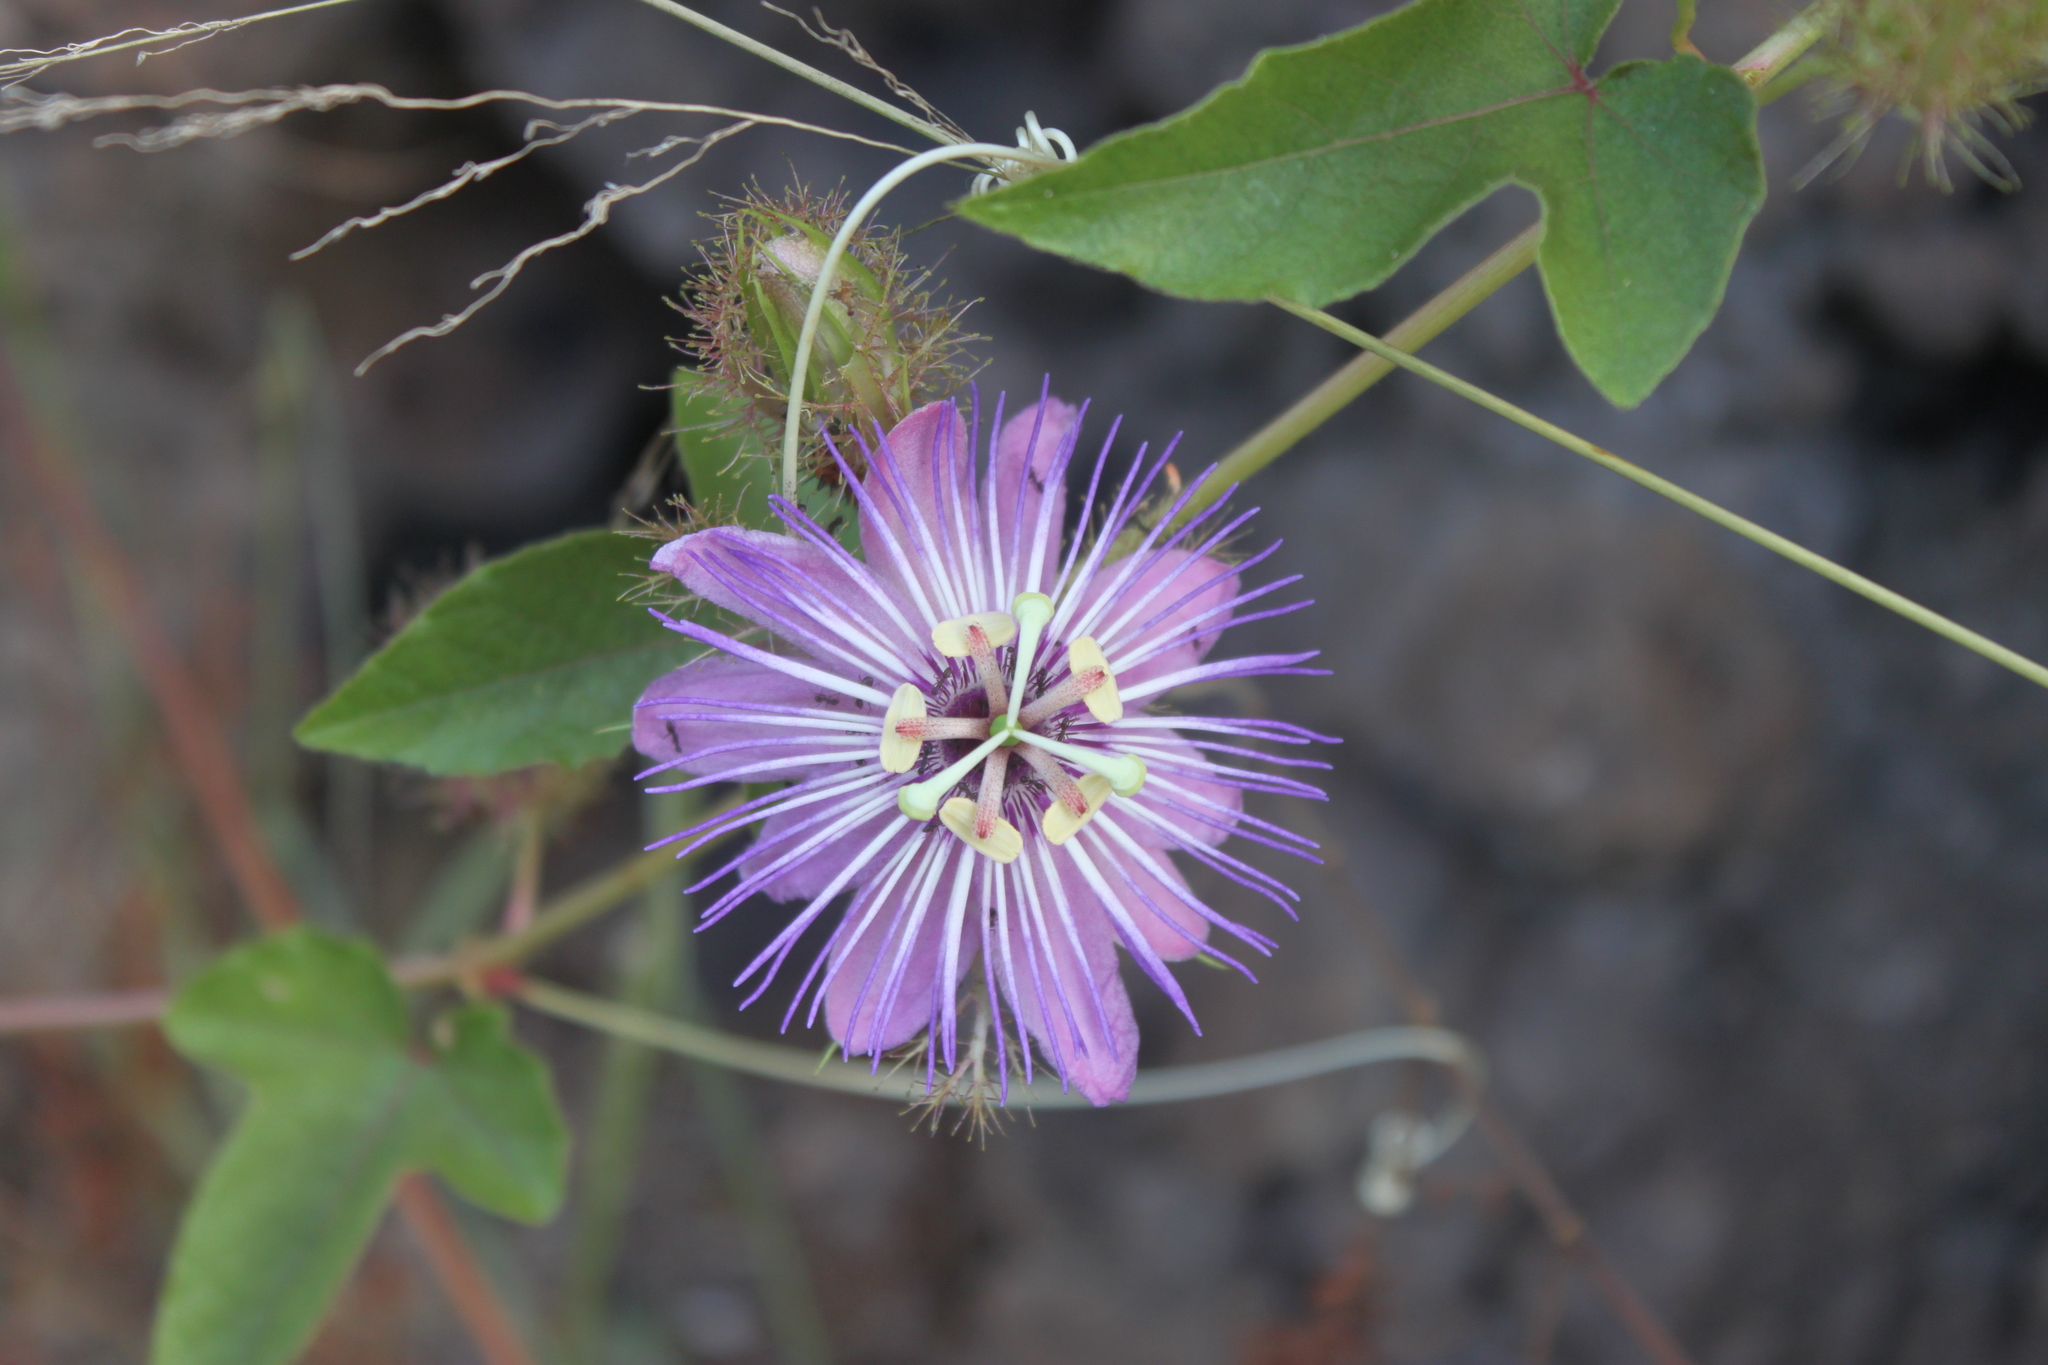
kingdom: Plantae
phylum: Tracheophyta
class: Magnoliopsida
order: Malpighiales
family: Passifloraceae
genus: Passiflora
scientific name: Passiflora foetida
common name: Fetid passionflower
